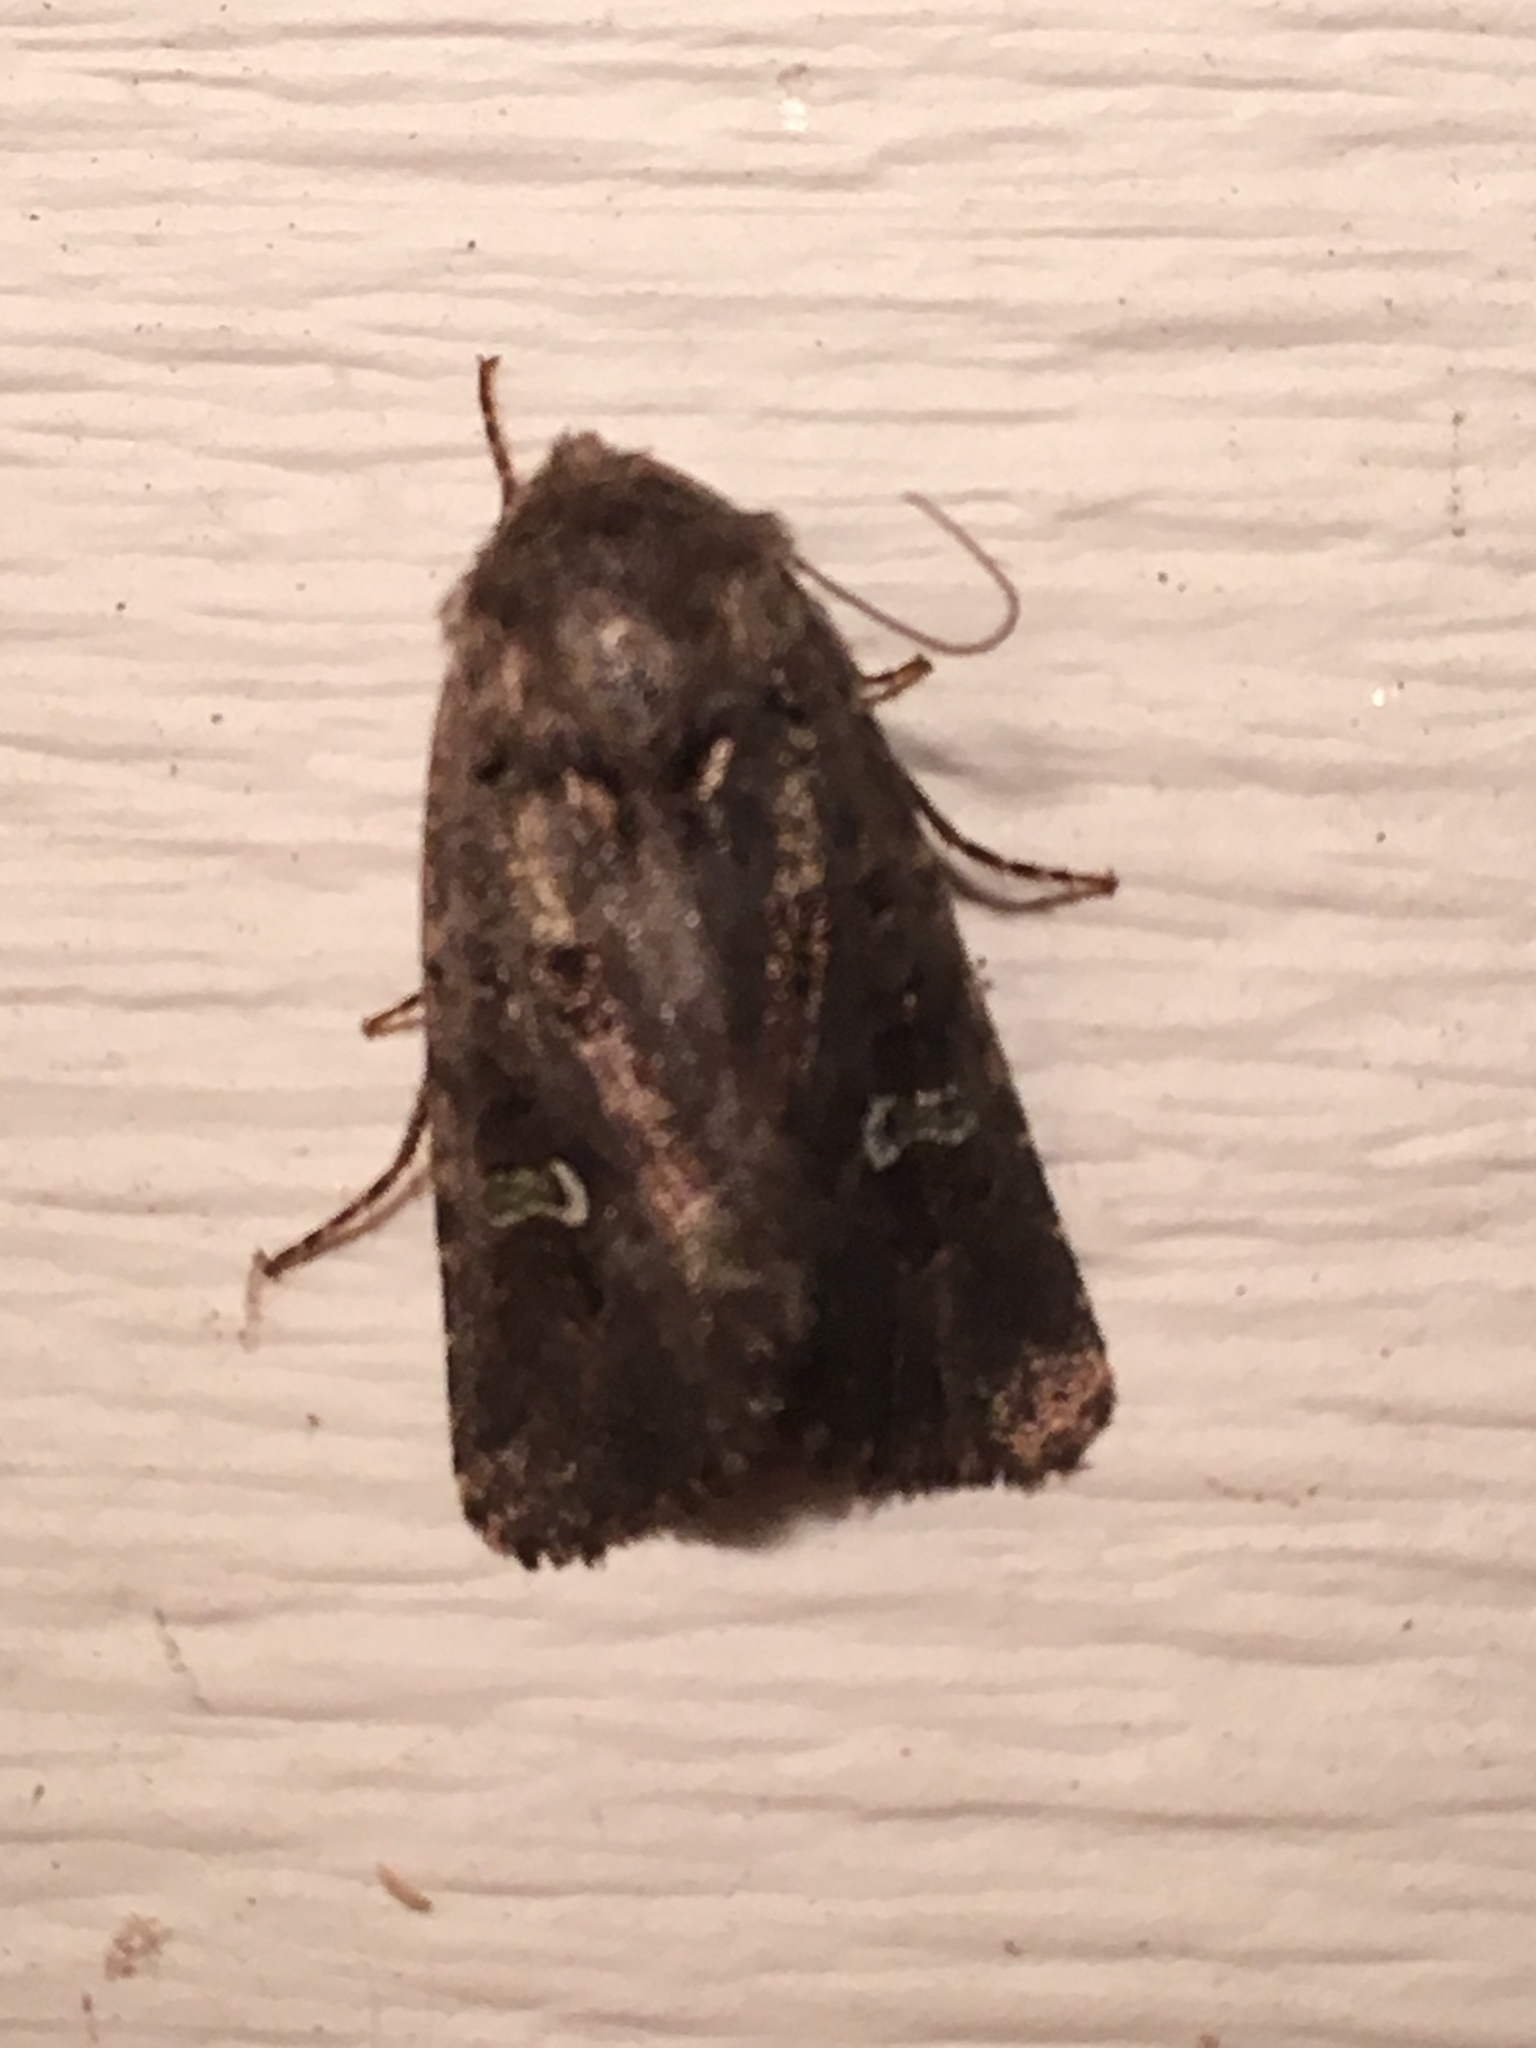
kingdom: Animalia
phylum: Arthropoda
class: Insecta
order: Lepidoptera
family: Noctuidae
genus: Lacinipolia
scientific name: Lacinipolia renigera
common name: Kidney-spotted minor
